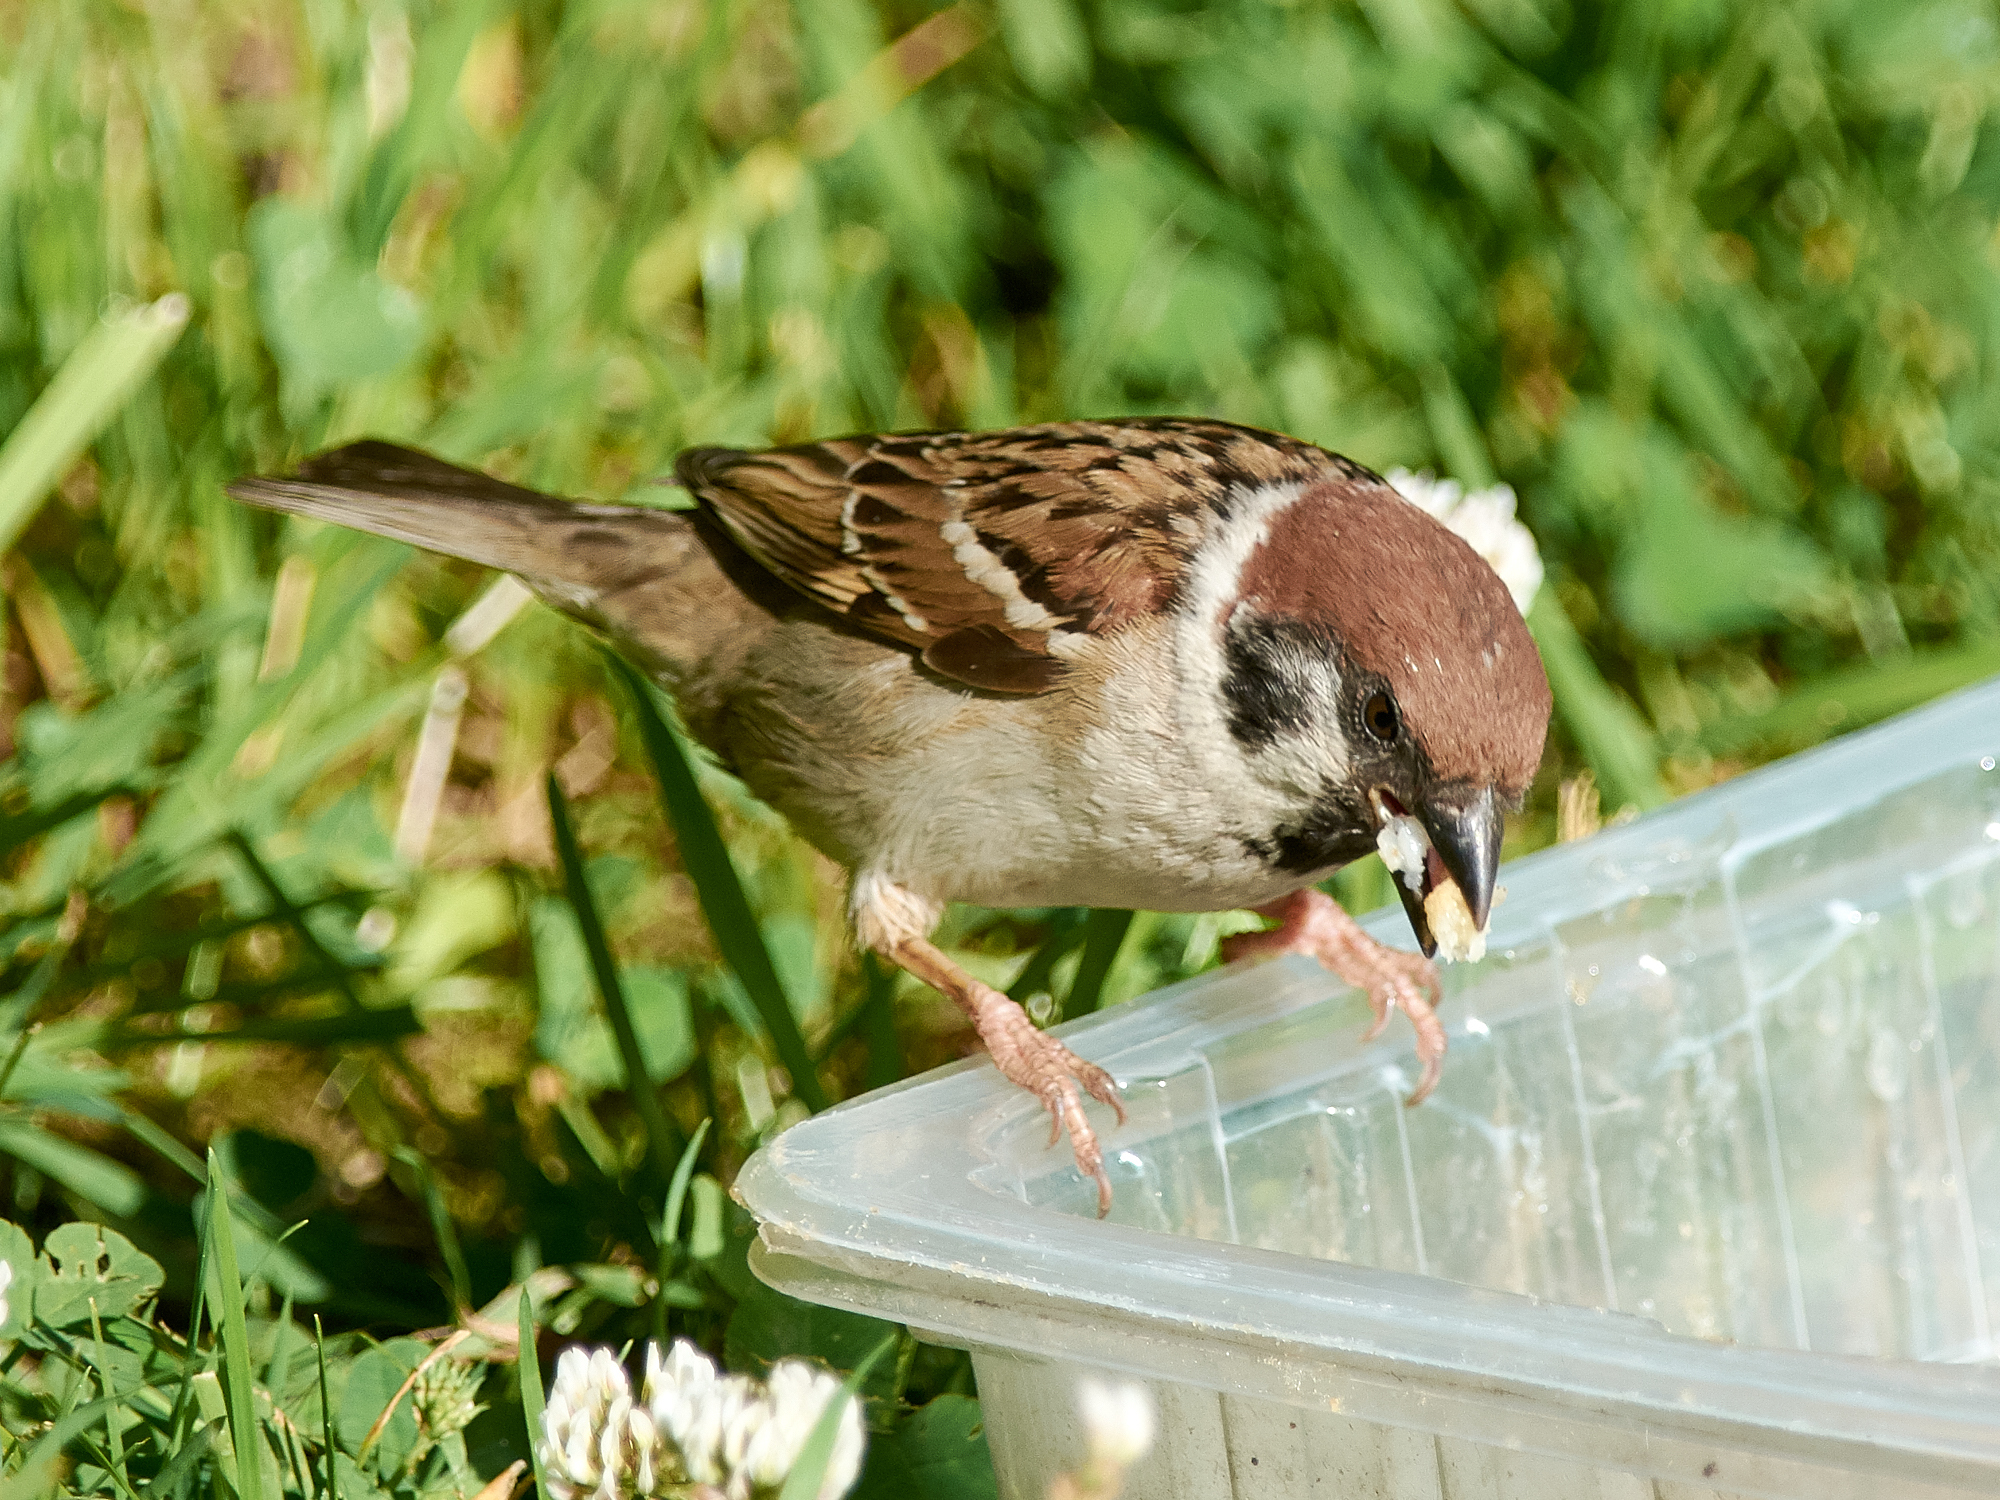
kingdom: Animalia
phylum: Chordata
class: Aves
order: Passeriformes
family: Passeridae
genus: Passer
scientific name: Passer montanus
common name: Eurasian tree sparrow
